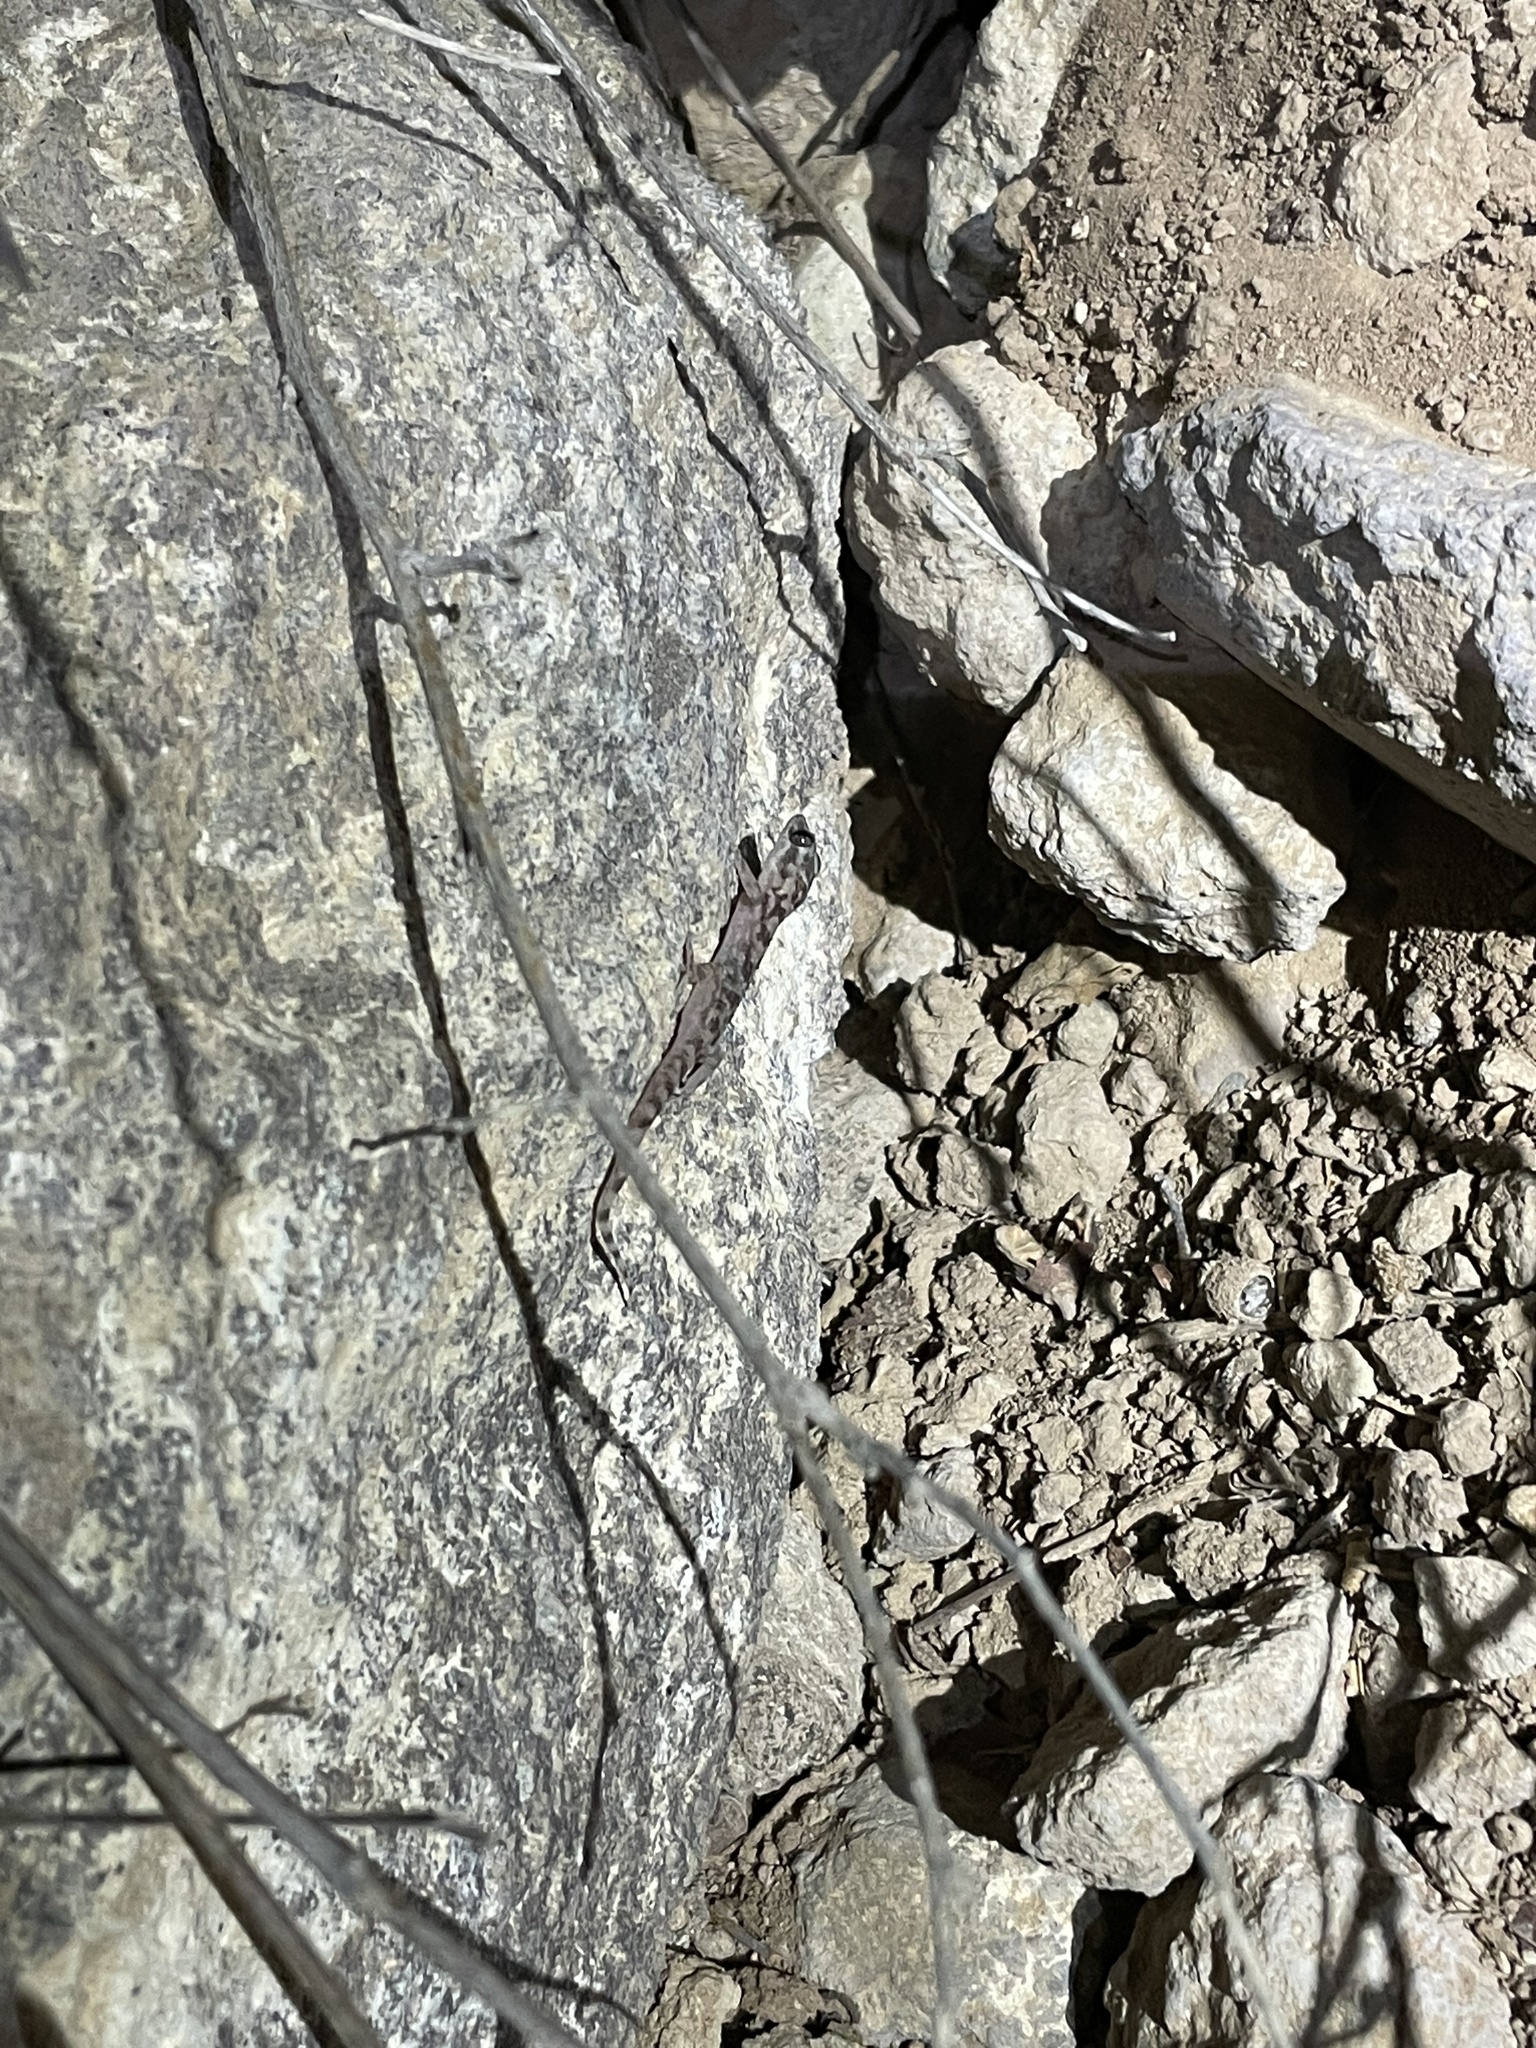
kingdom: Animalia
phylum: Chordata
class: Squamata
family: Phyllodactylidae
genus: Phyllodactylus
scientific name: Phyllodactylus nocticolus
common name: Peninsula leaf-toed gecko
